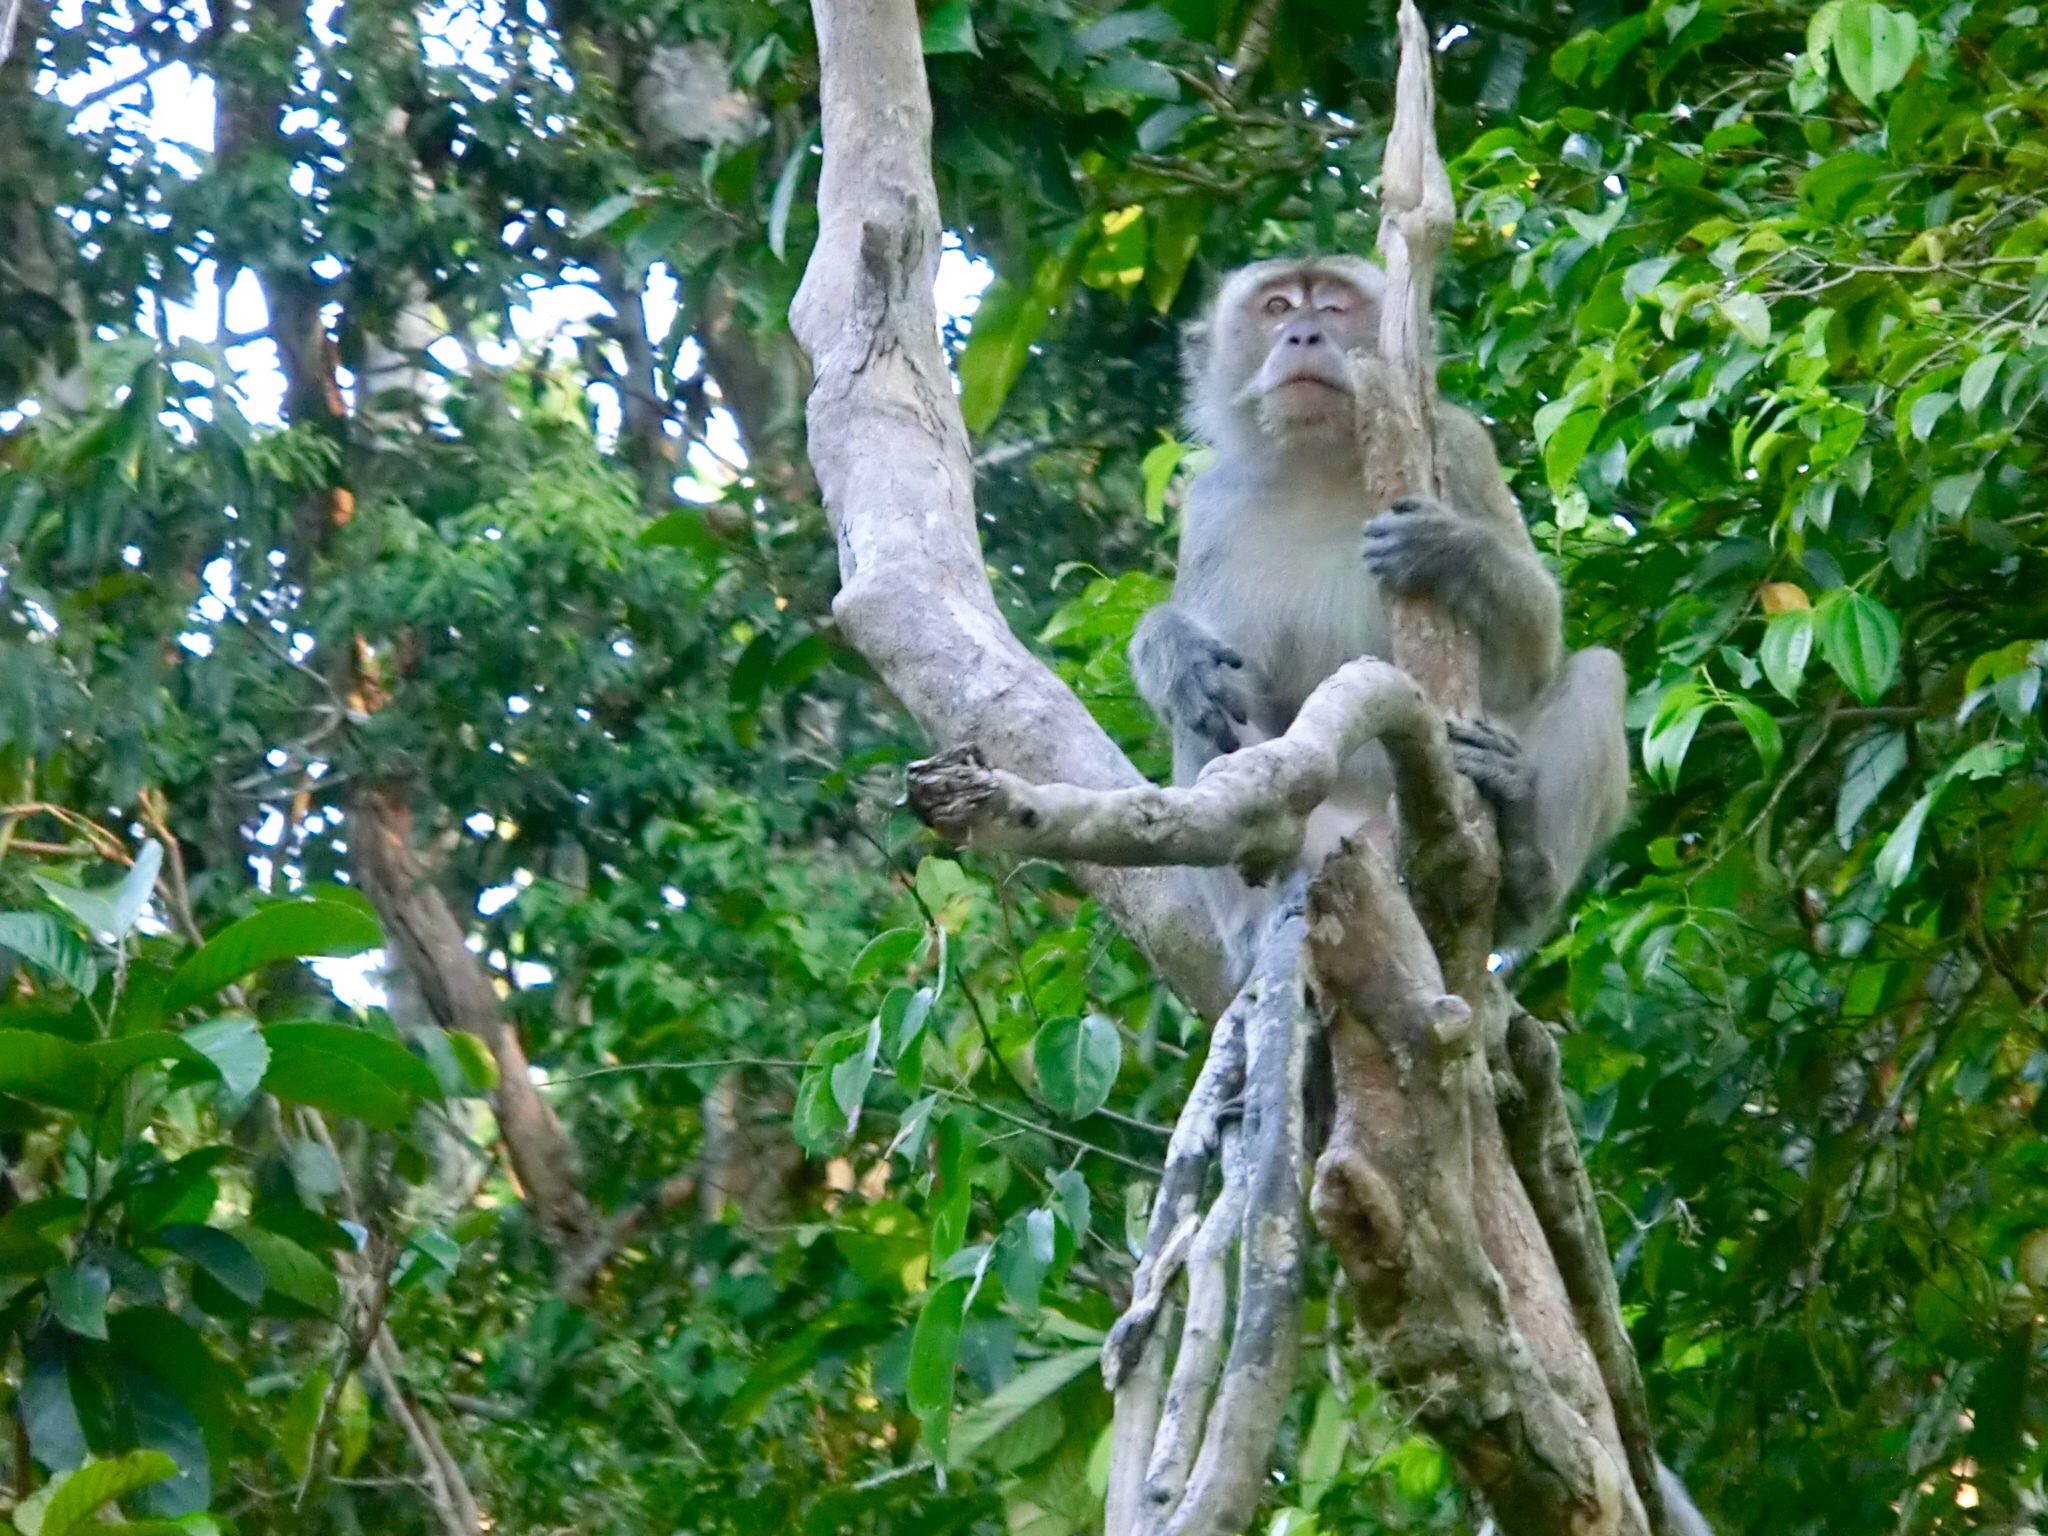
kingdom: Animalia
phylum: Chordata
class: Mammalia
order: Primates
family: Cercopithecidae
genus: Macaca
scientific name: Macaca fascicularis
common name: Crab-eating macaque
